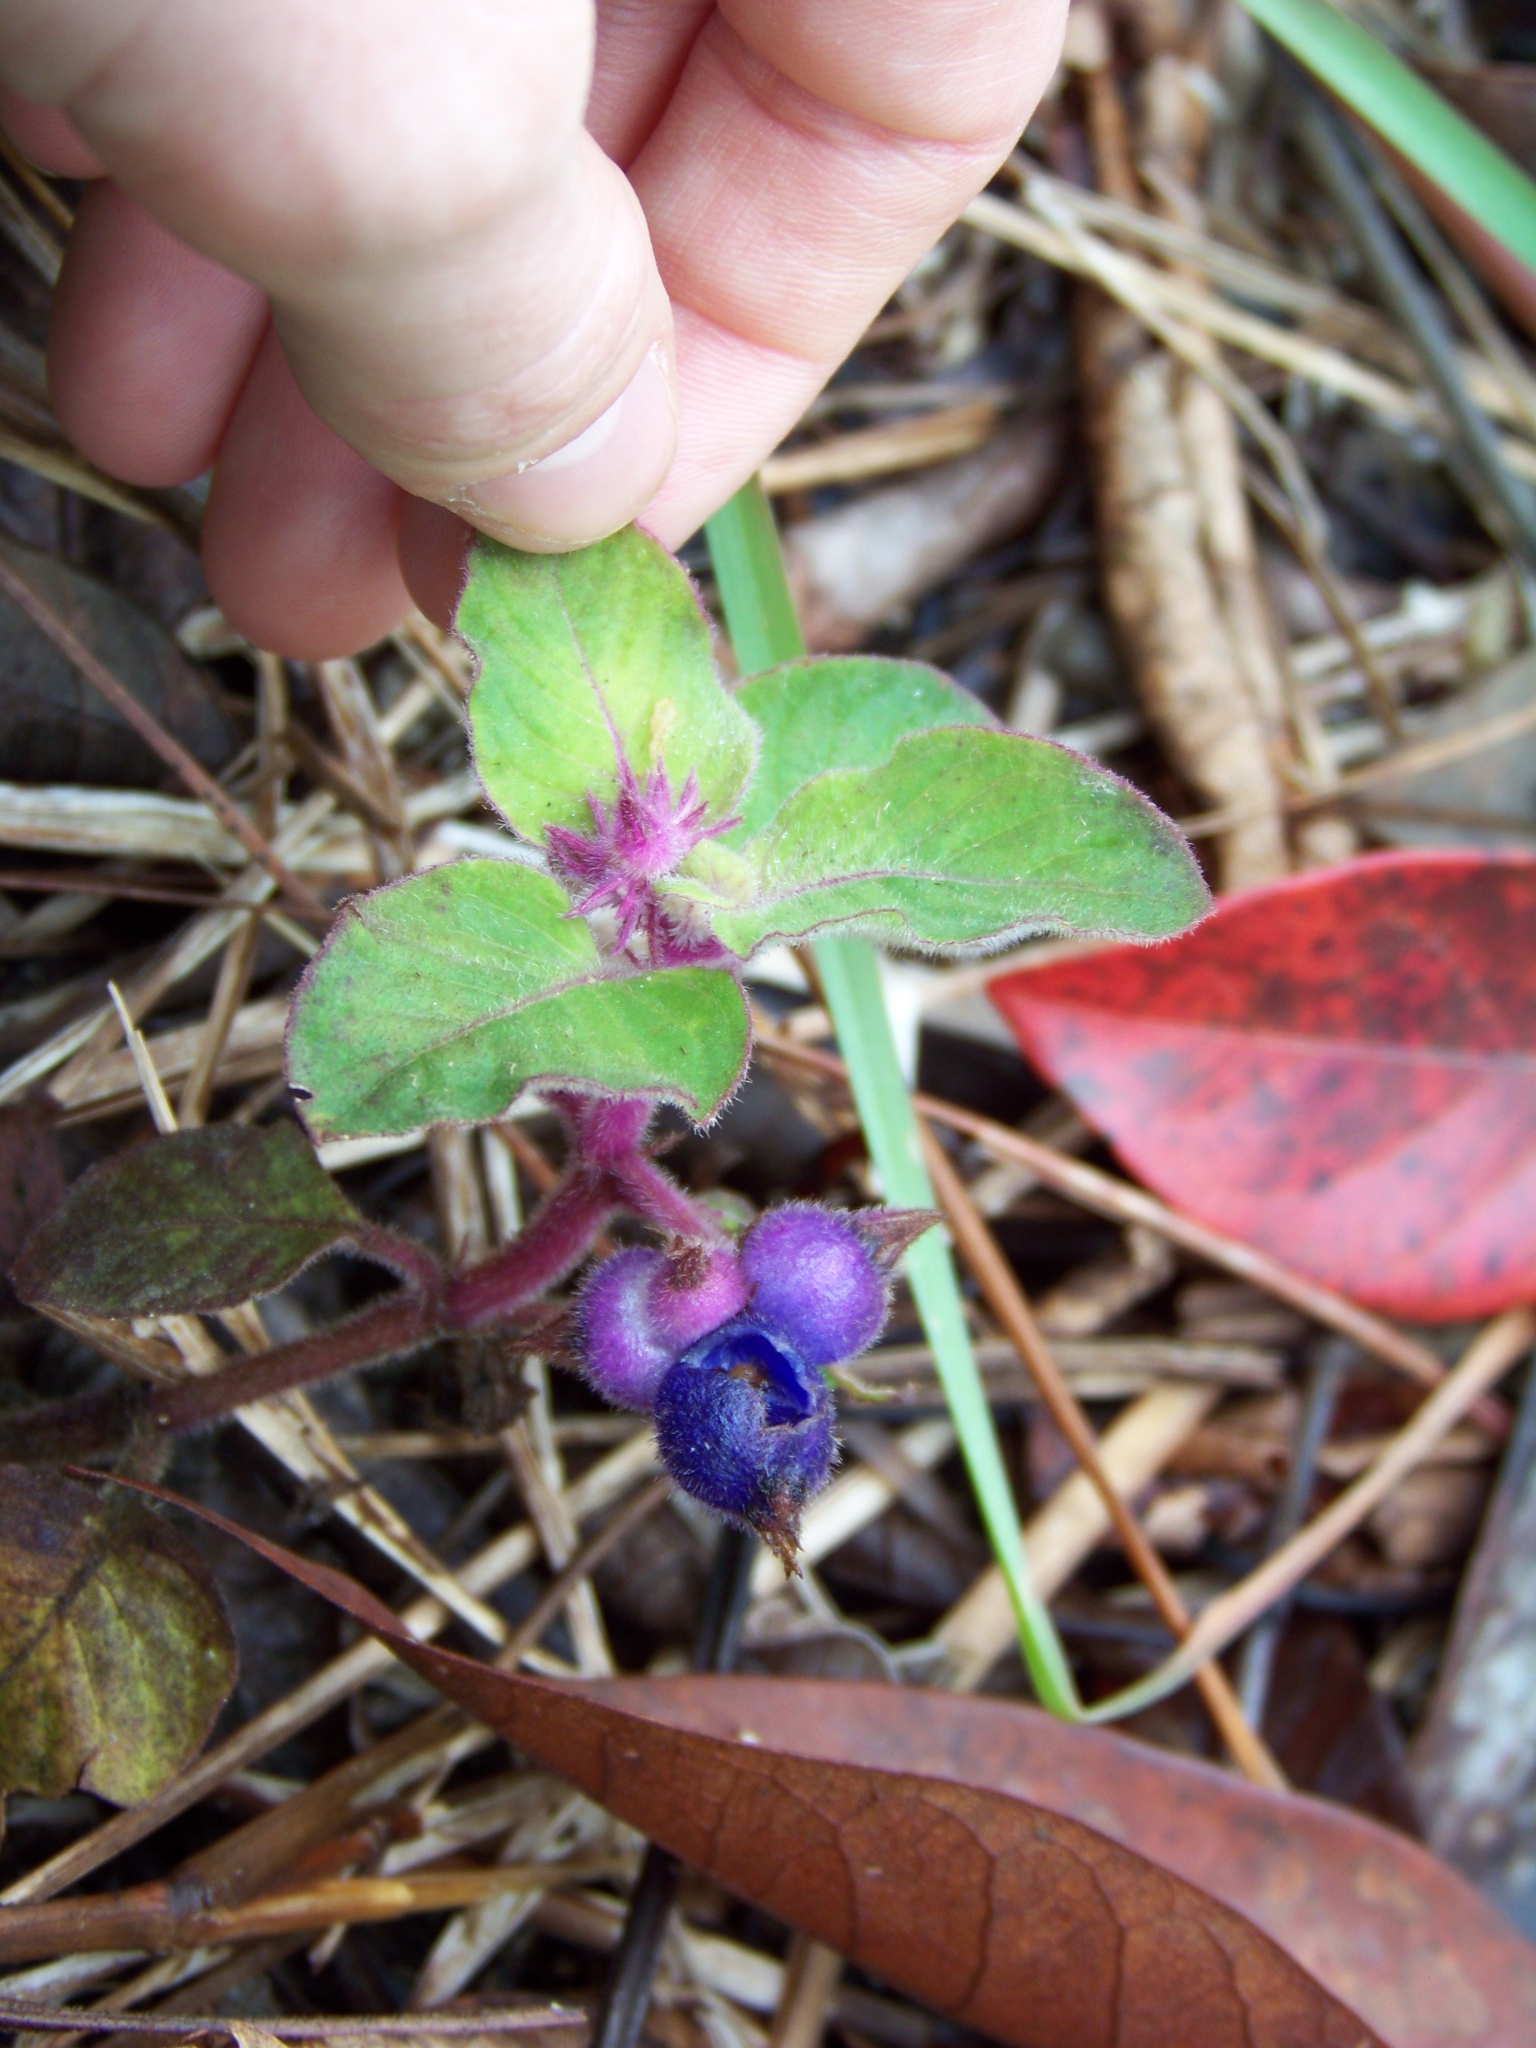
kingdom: Plantae
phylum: Tracheophyta
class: Magnoliopsida
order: Gentianales
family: Rubiaceae
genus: Coccocypselum
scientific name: Coccocypselum hirsutum
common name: Yerba de guava
